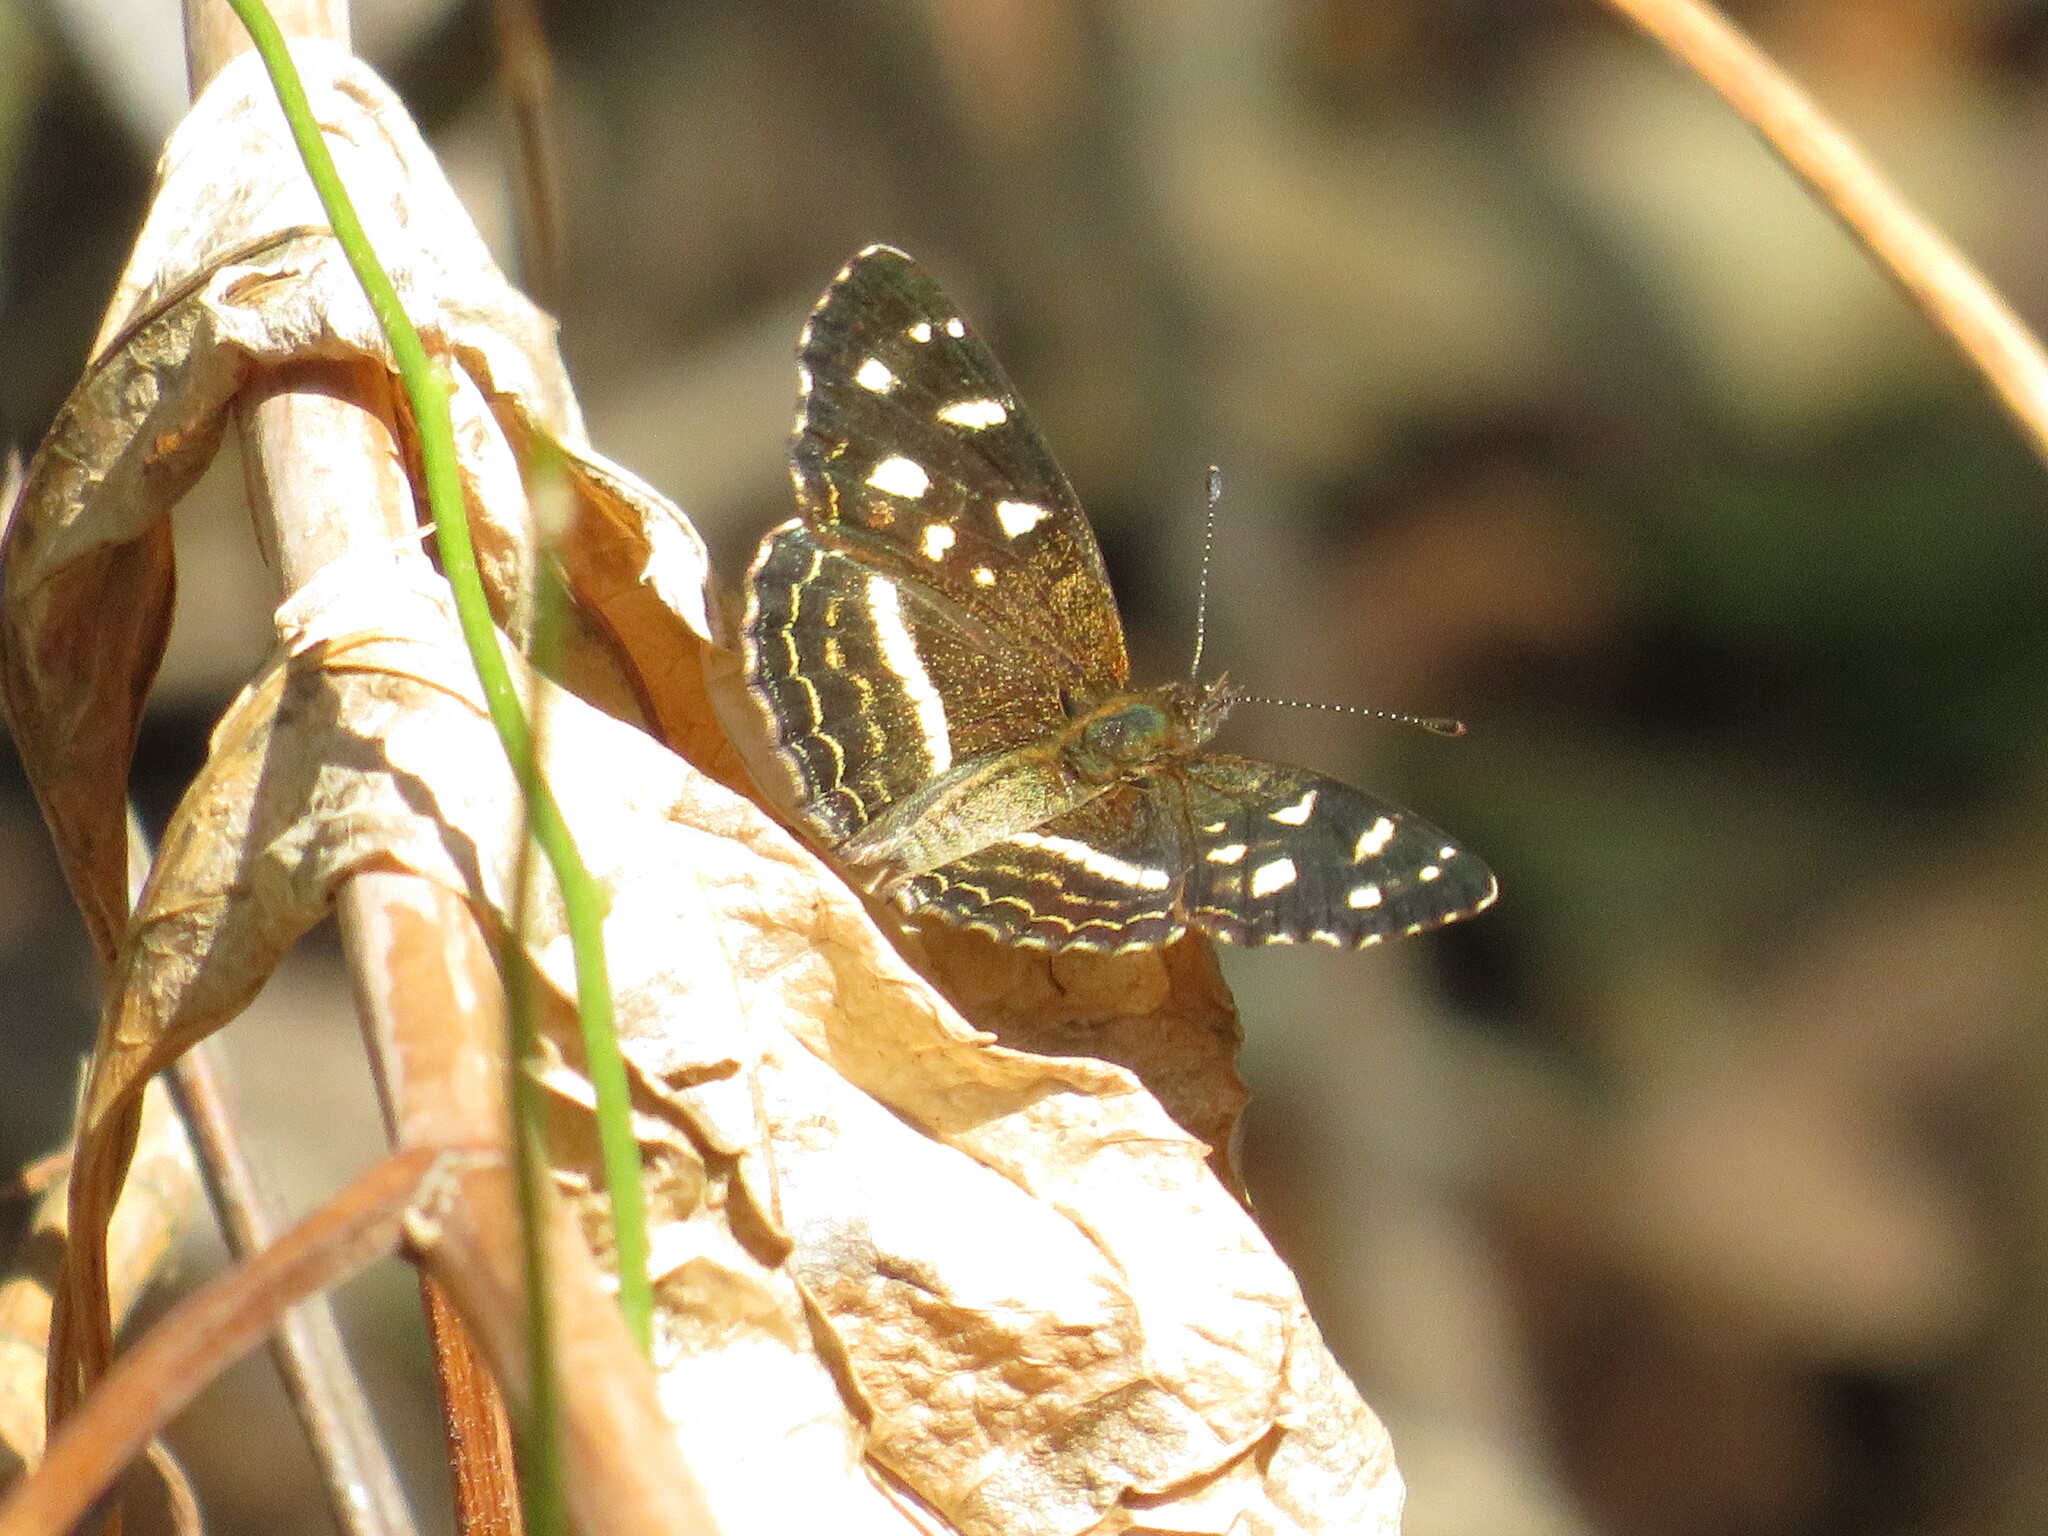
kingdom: Animalia
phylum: Arthropoda
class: Insecta
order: Lepidoptera
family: Nymphalidae
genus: Ortilia
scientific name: Ortilia ithra
